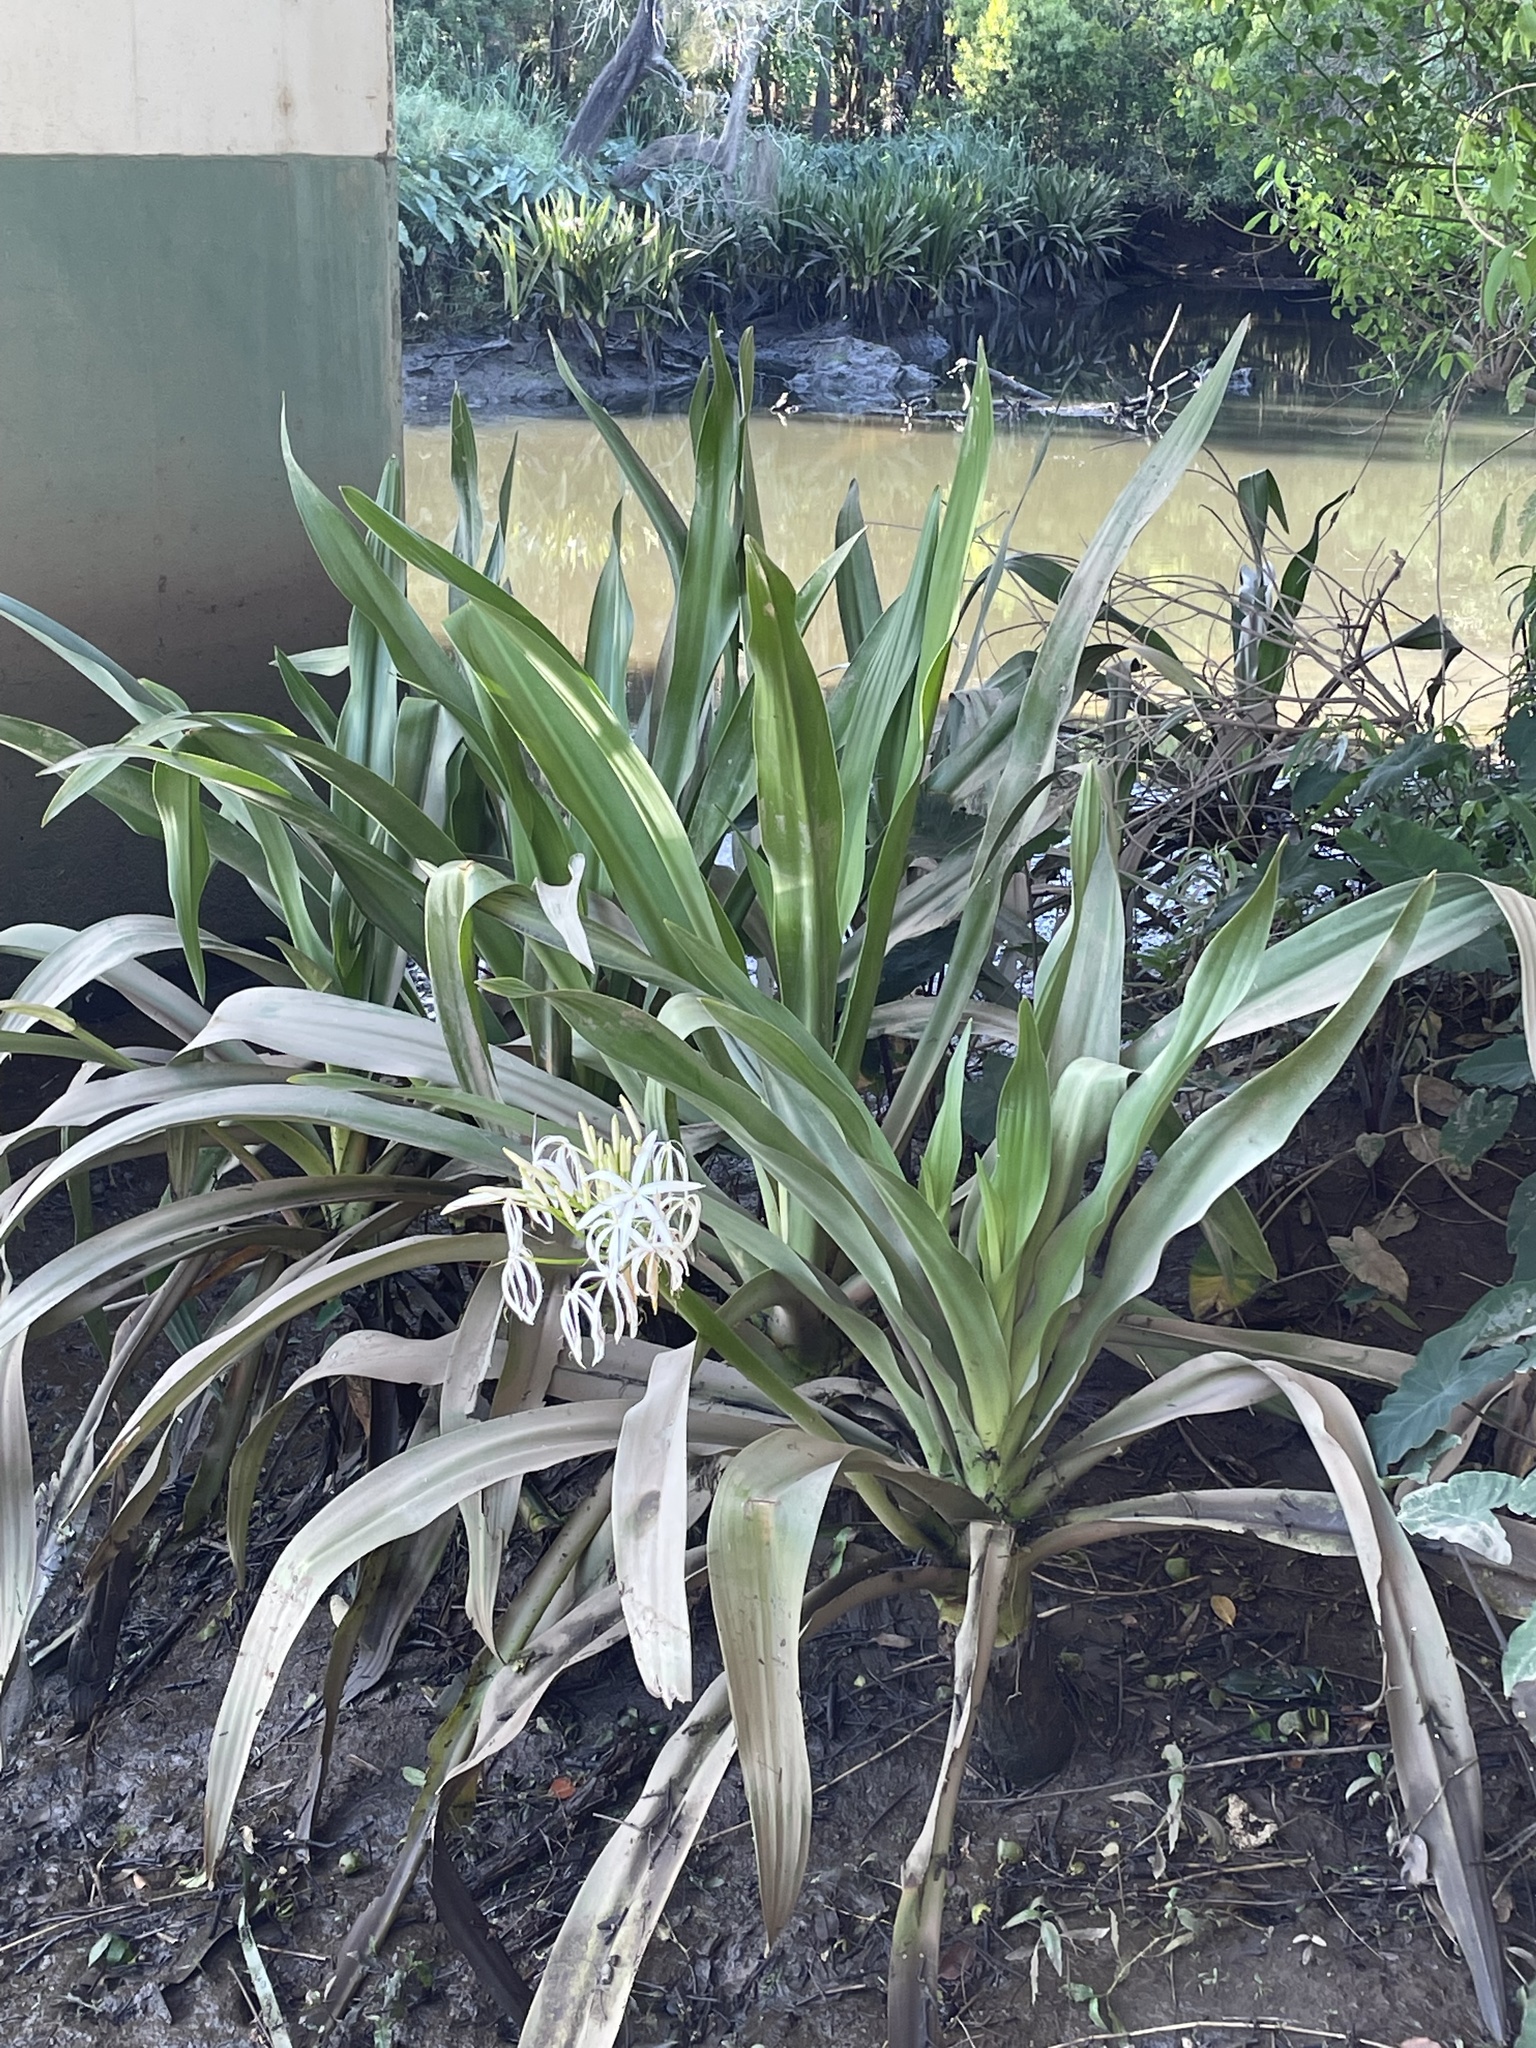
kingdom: Plantae
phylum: Tracheophyta
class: Liliopsida
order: Asparagales
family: Amaryllidaceae
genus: Crinum
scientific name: Crinum pedunculatum
